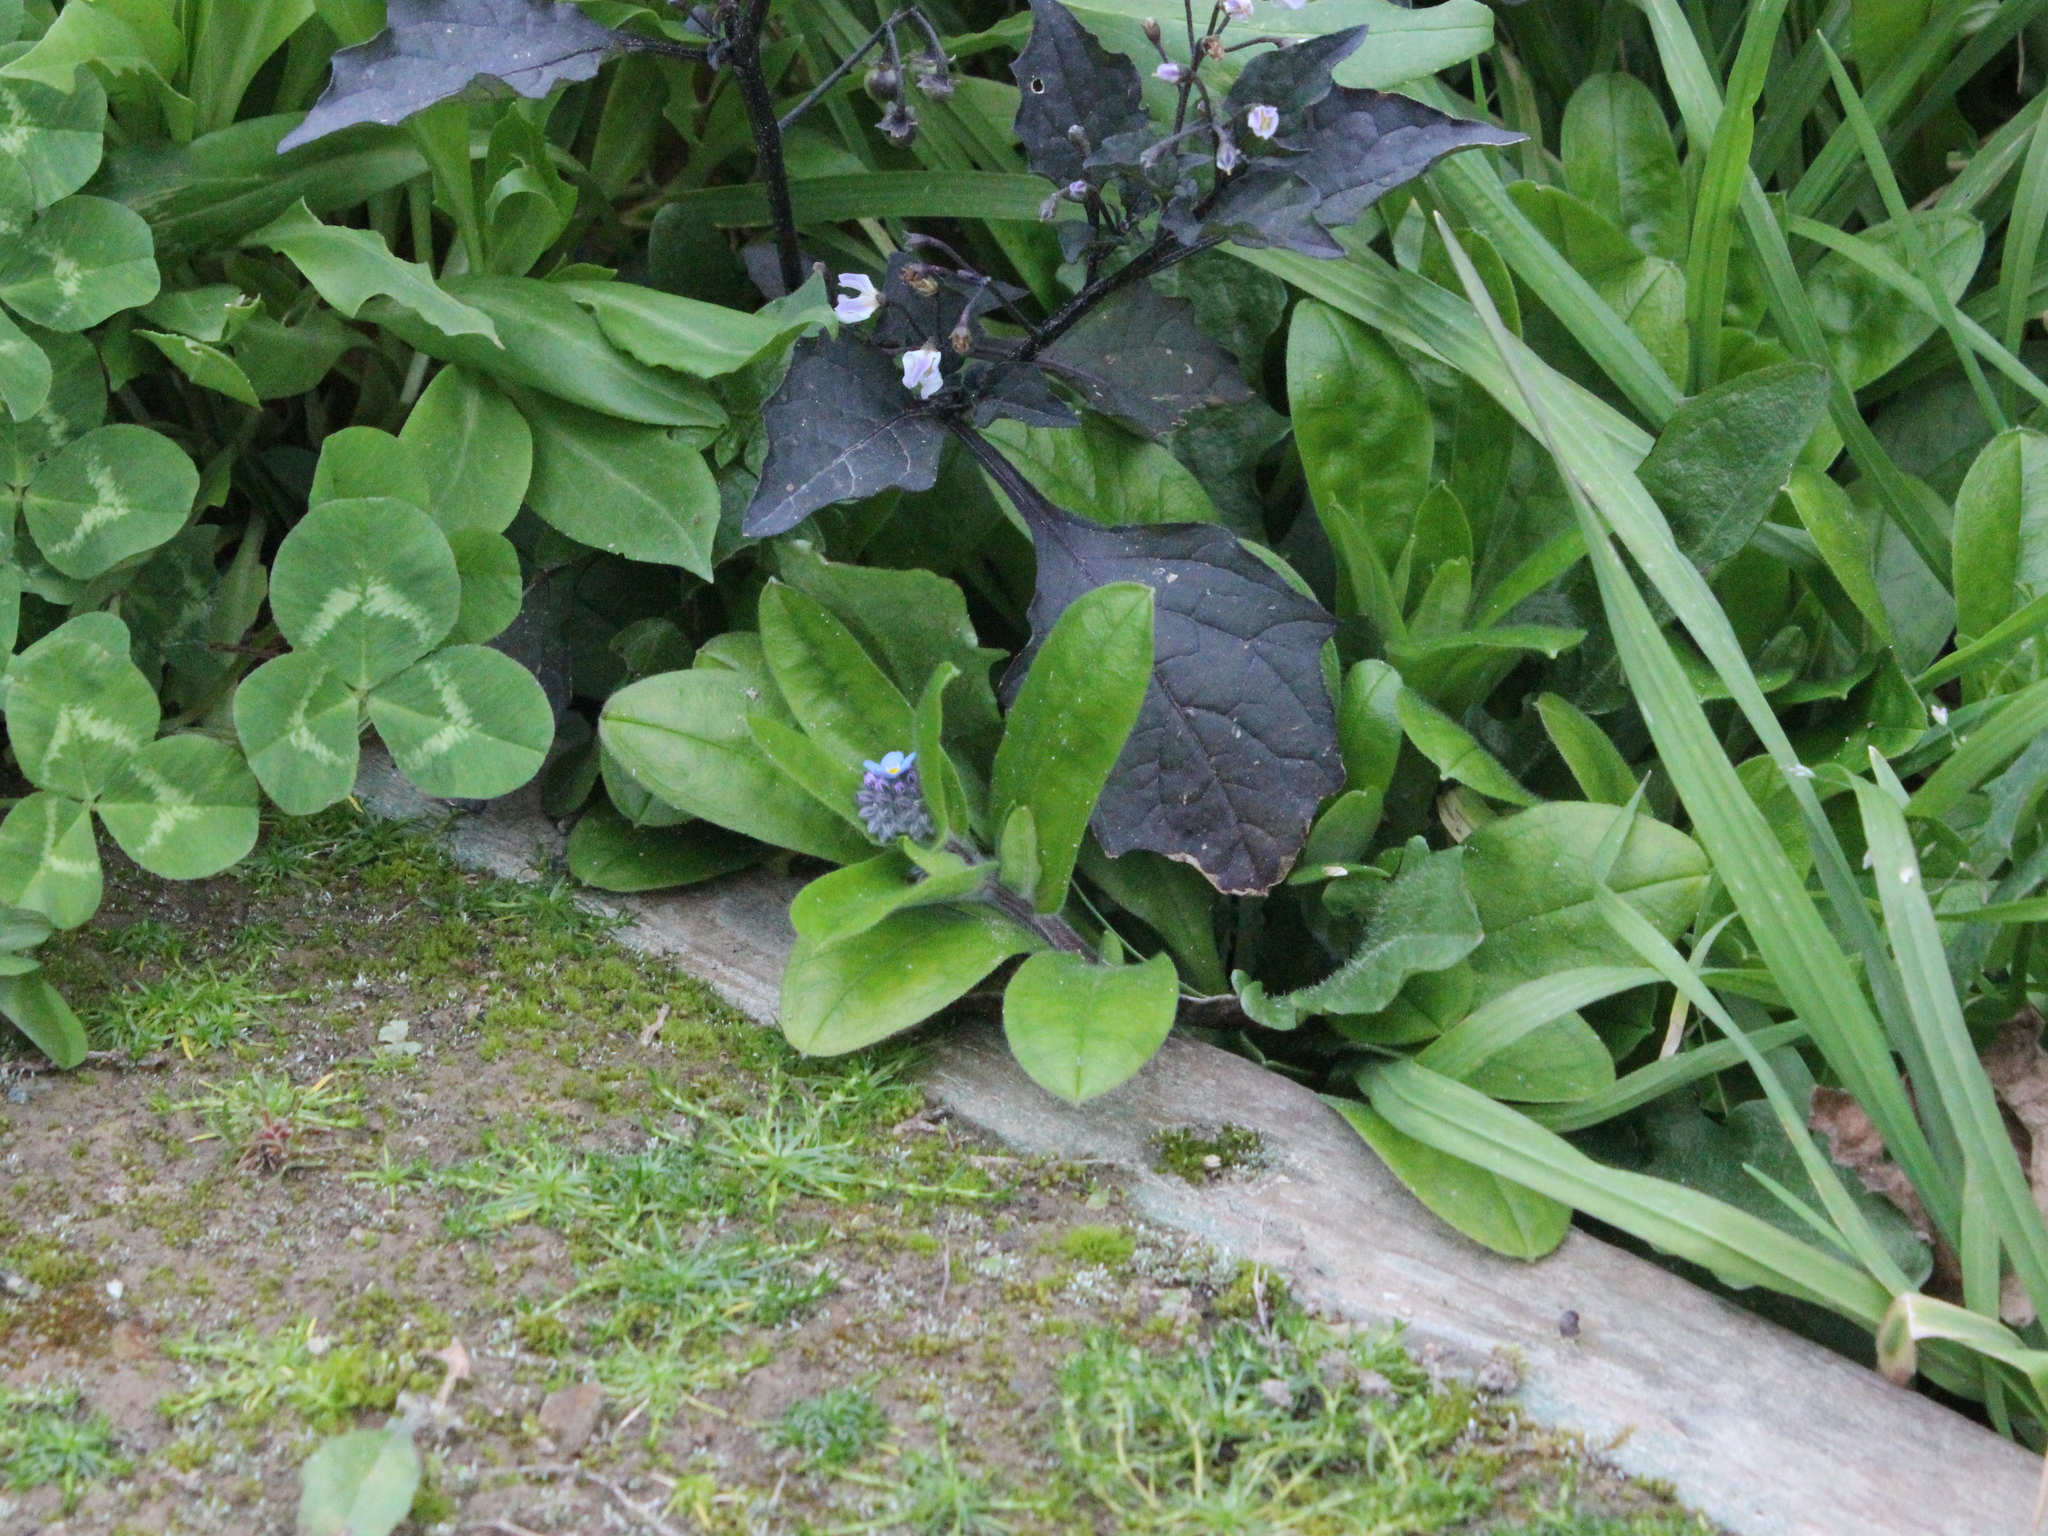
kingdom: Plantae
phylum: Tracheophyta
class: Magnoliopsida
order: Boraginales
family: Boraginaceae
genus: Myosotis
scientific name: Myosotis sylvatica
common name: Wood forget-me-not
